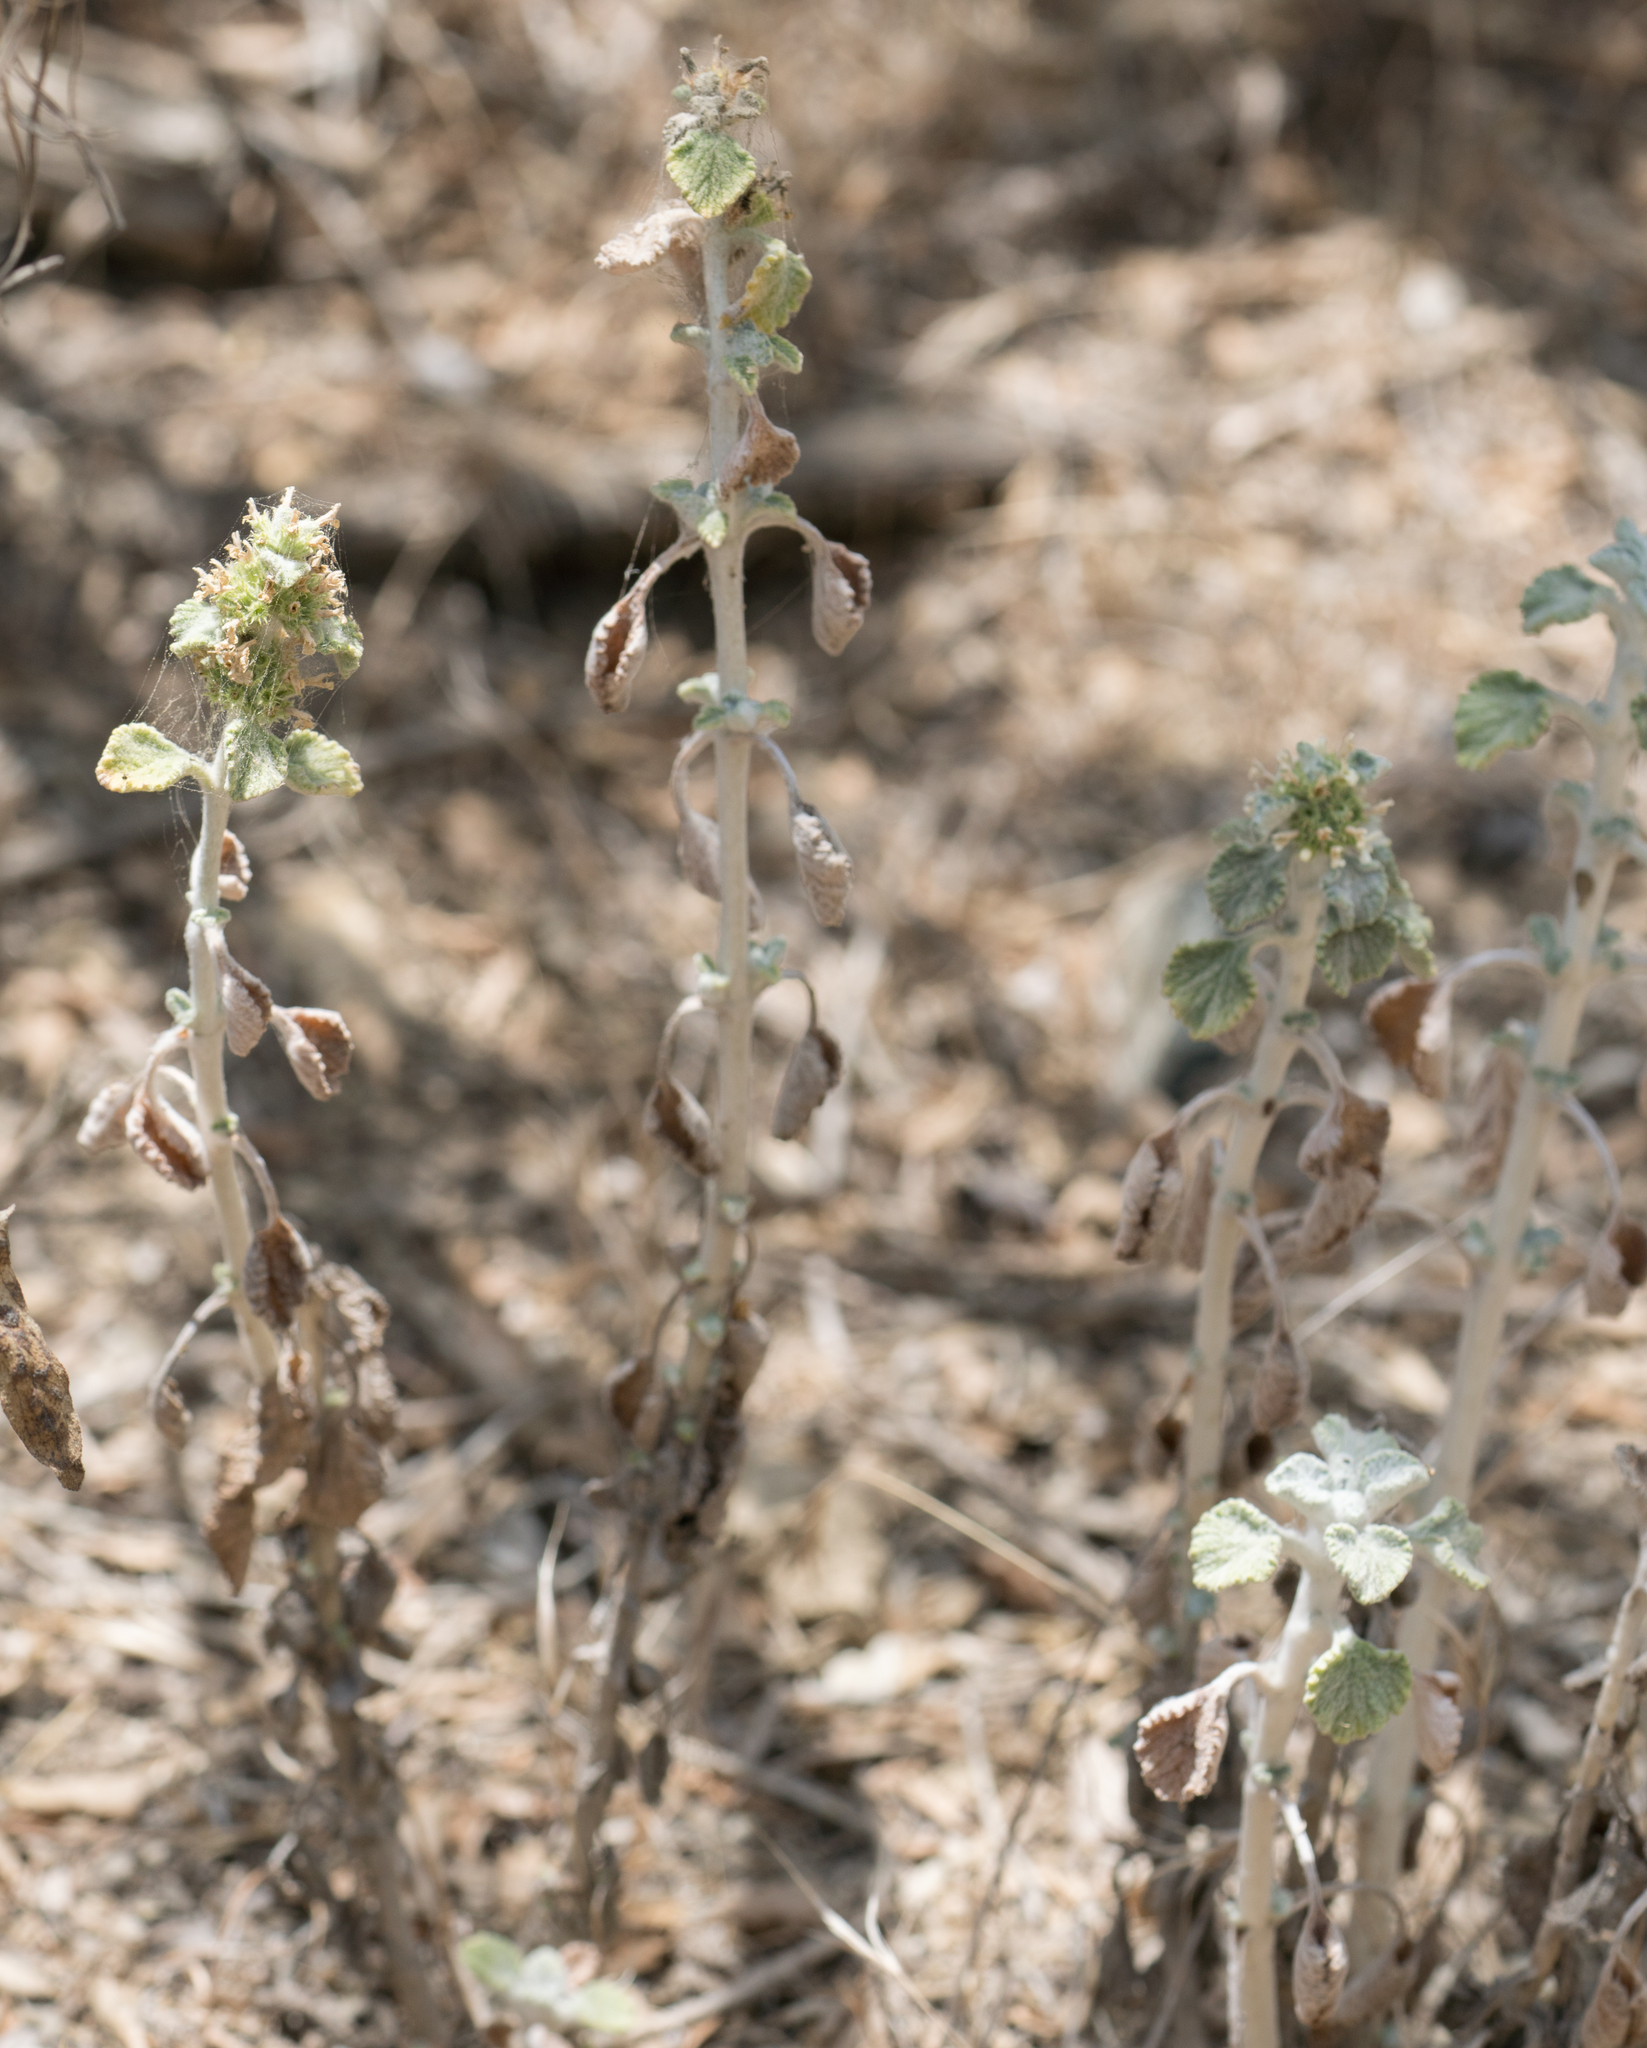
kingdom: Plantae
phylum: Tracheophyta
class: Magnoliopsida
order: Lamiales
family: Lamiaceae
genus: Marrubium
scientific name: Marrubium vulgare
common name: Horehound
